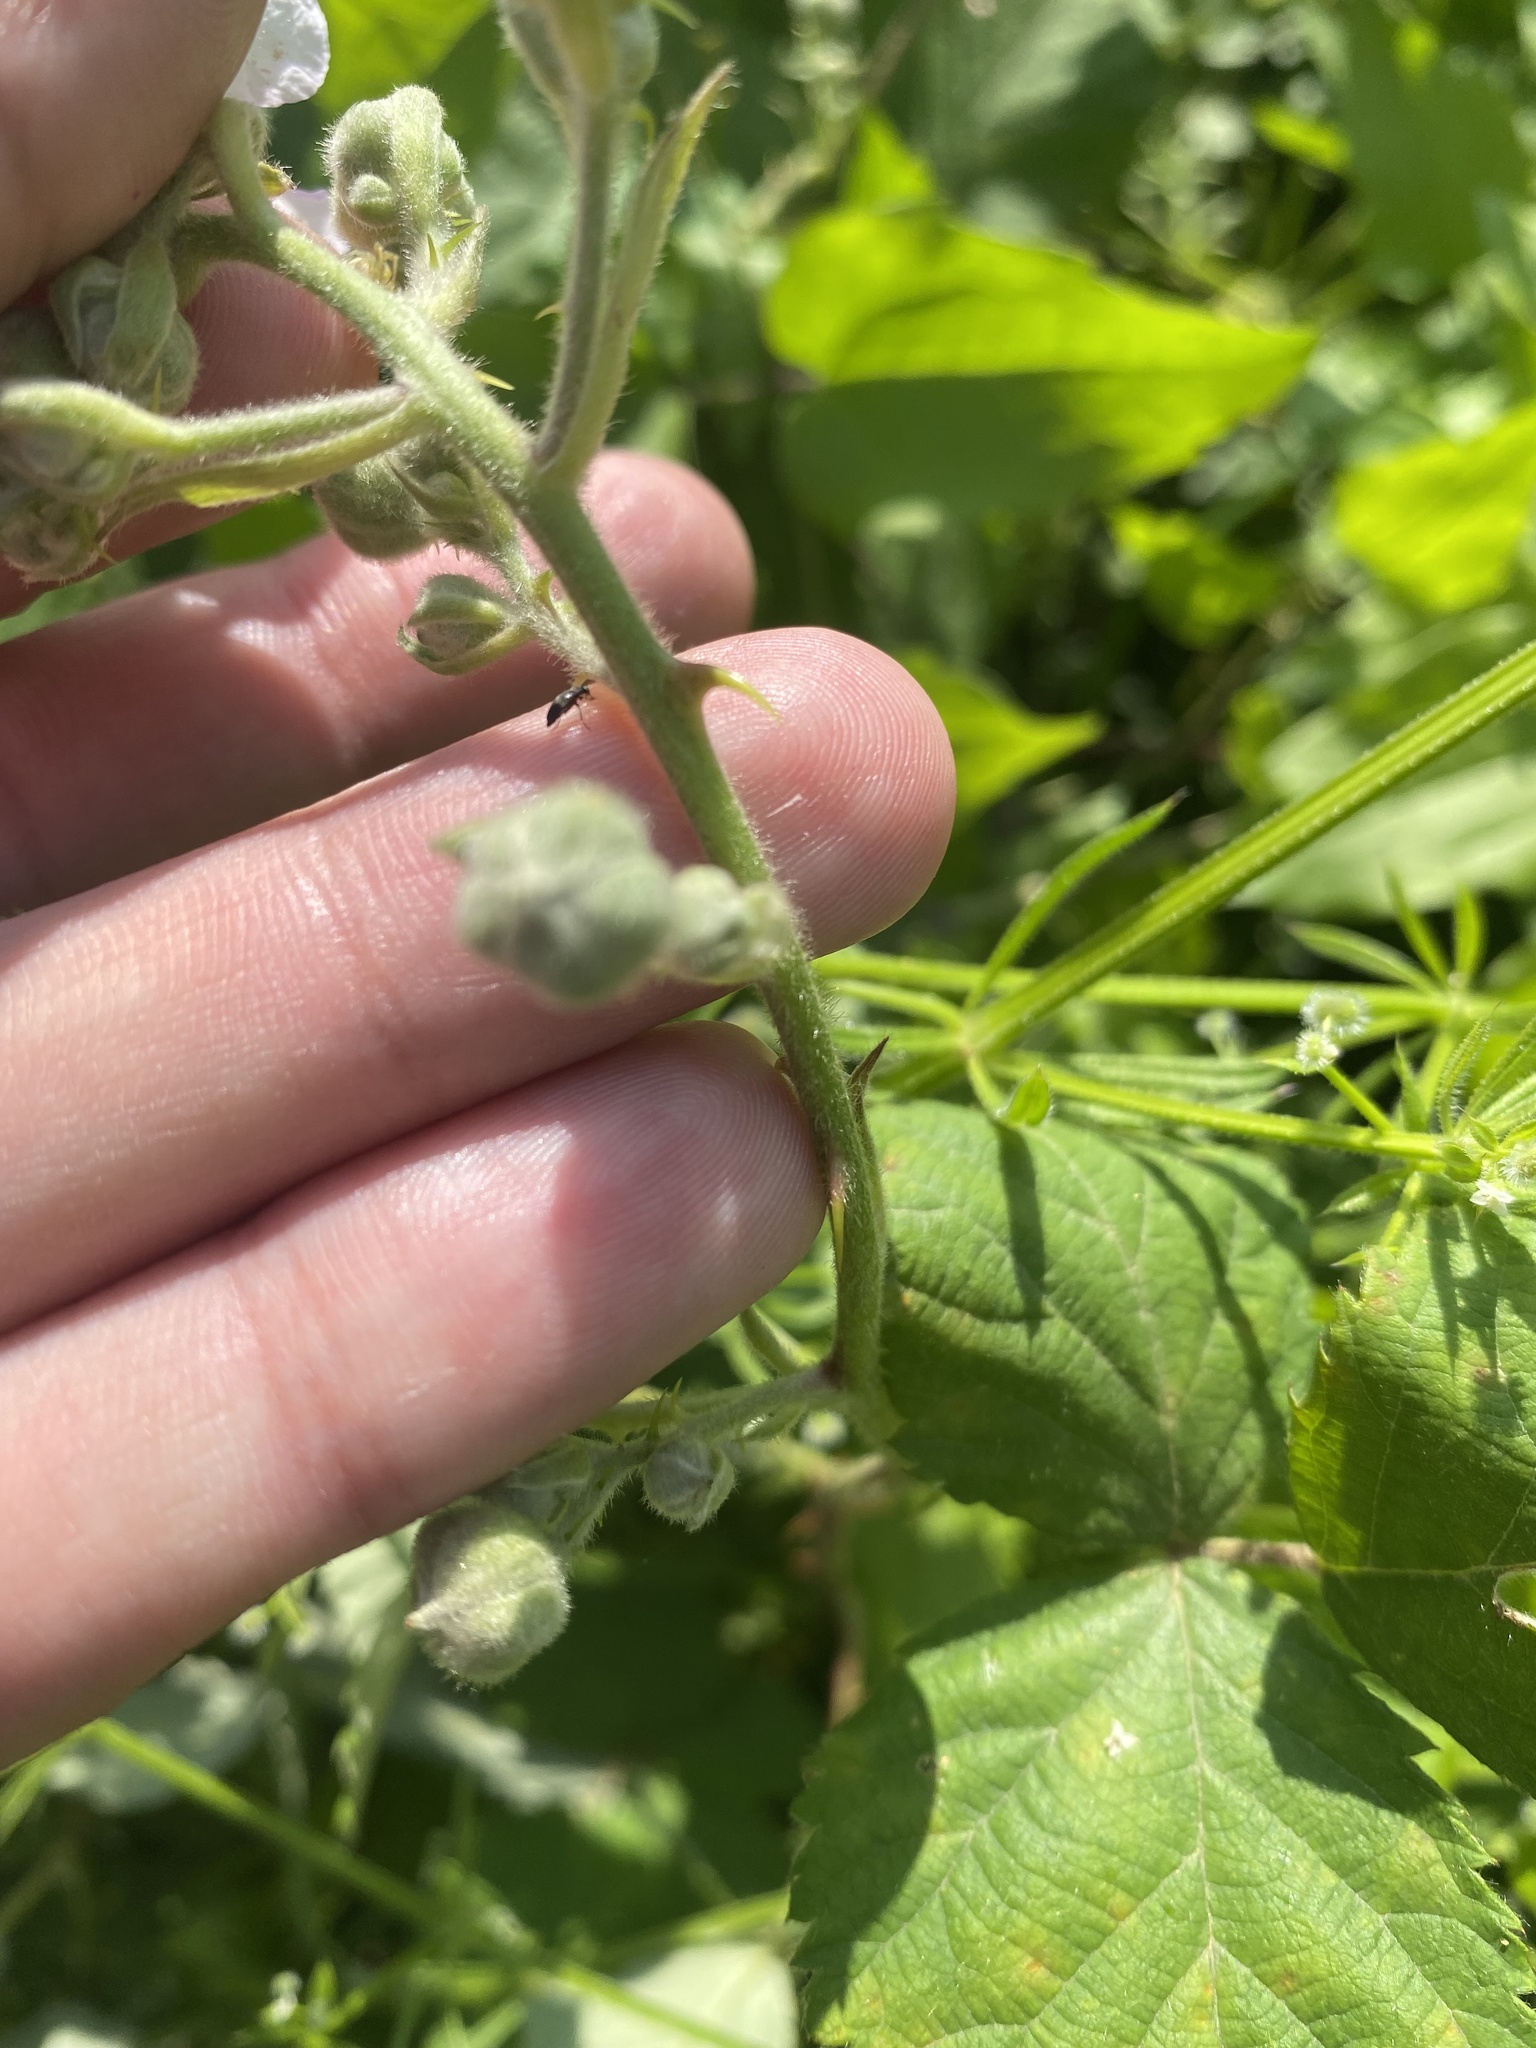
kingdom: Plantae
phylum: Tracheophyta
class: Magnoliopsida
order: Rosales
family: Rosaceae
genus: Rubus
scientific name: Rubus canescens
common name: Wooly blackberry
